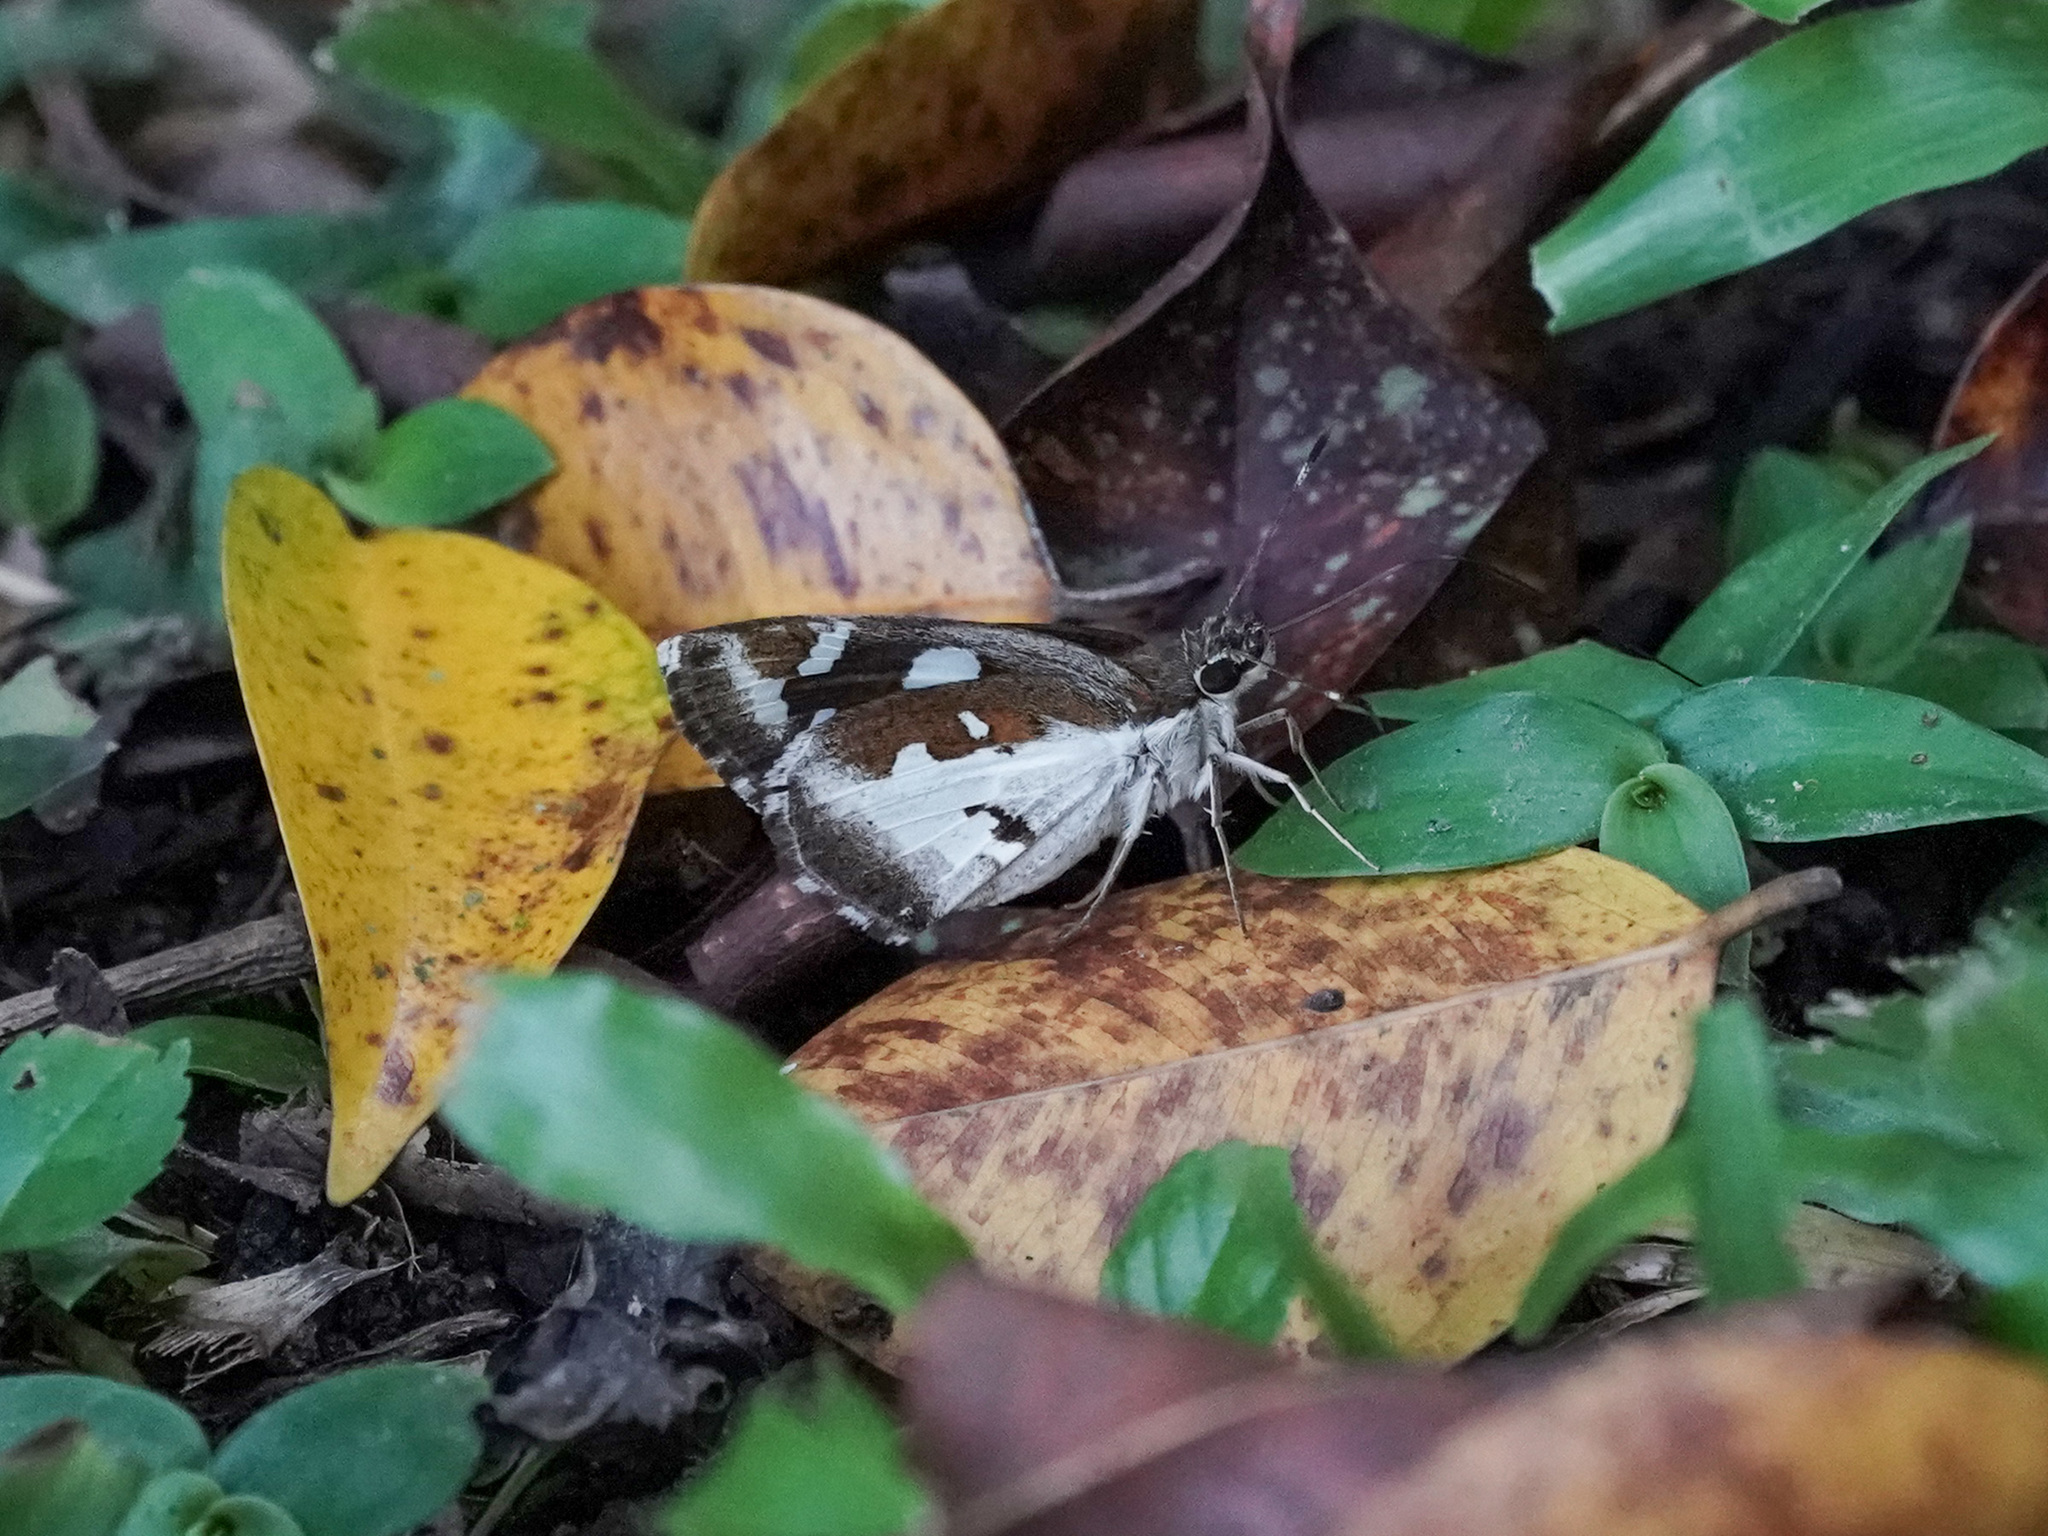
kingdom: Animalia
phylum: Arthropoda
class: Insecta
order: Lepidoptera
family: Hesperiidae
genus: Udaspes
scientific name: Udaspes folus
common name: Grass demon
